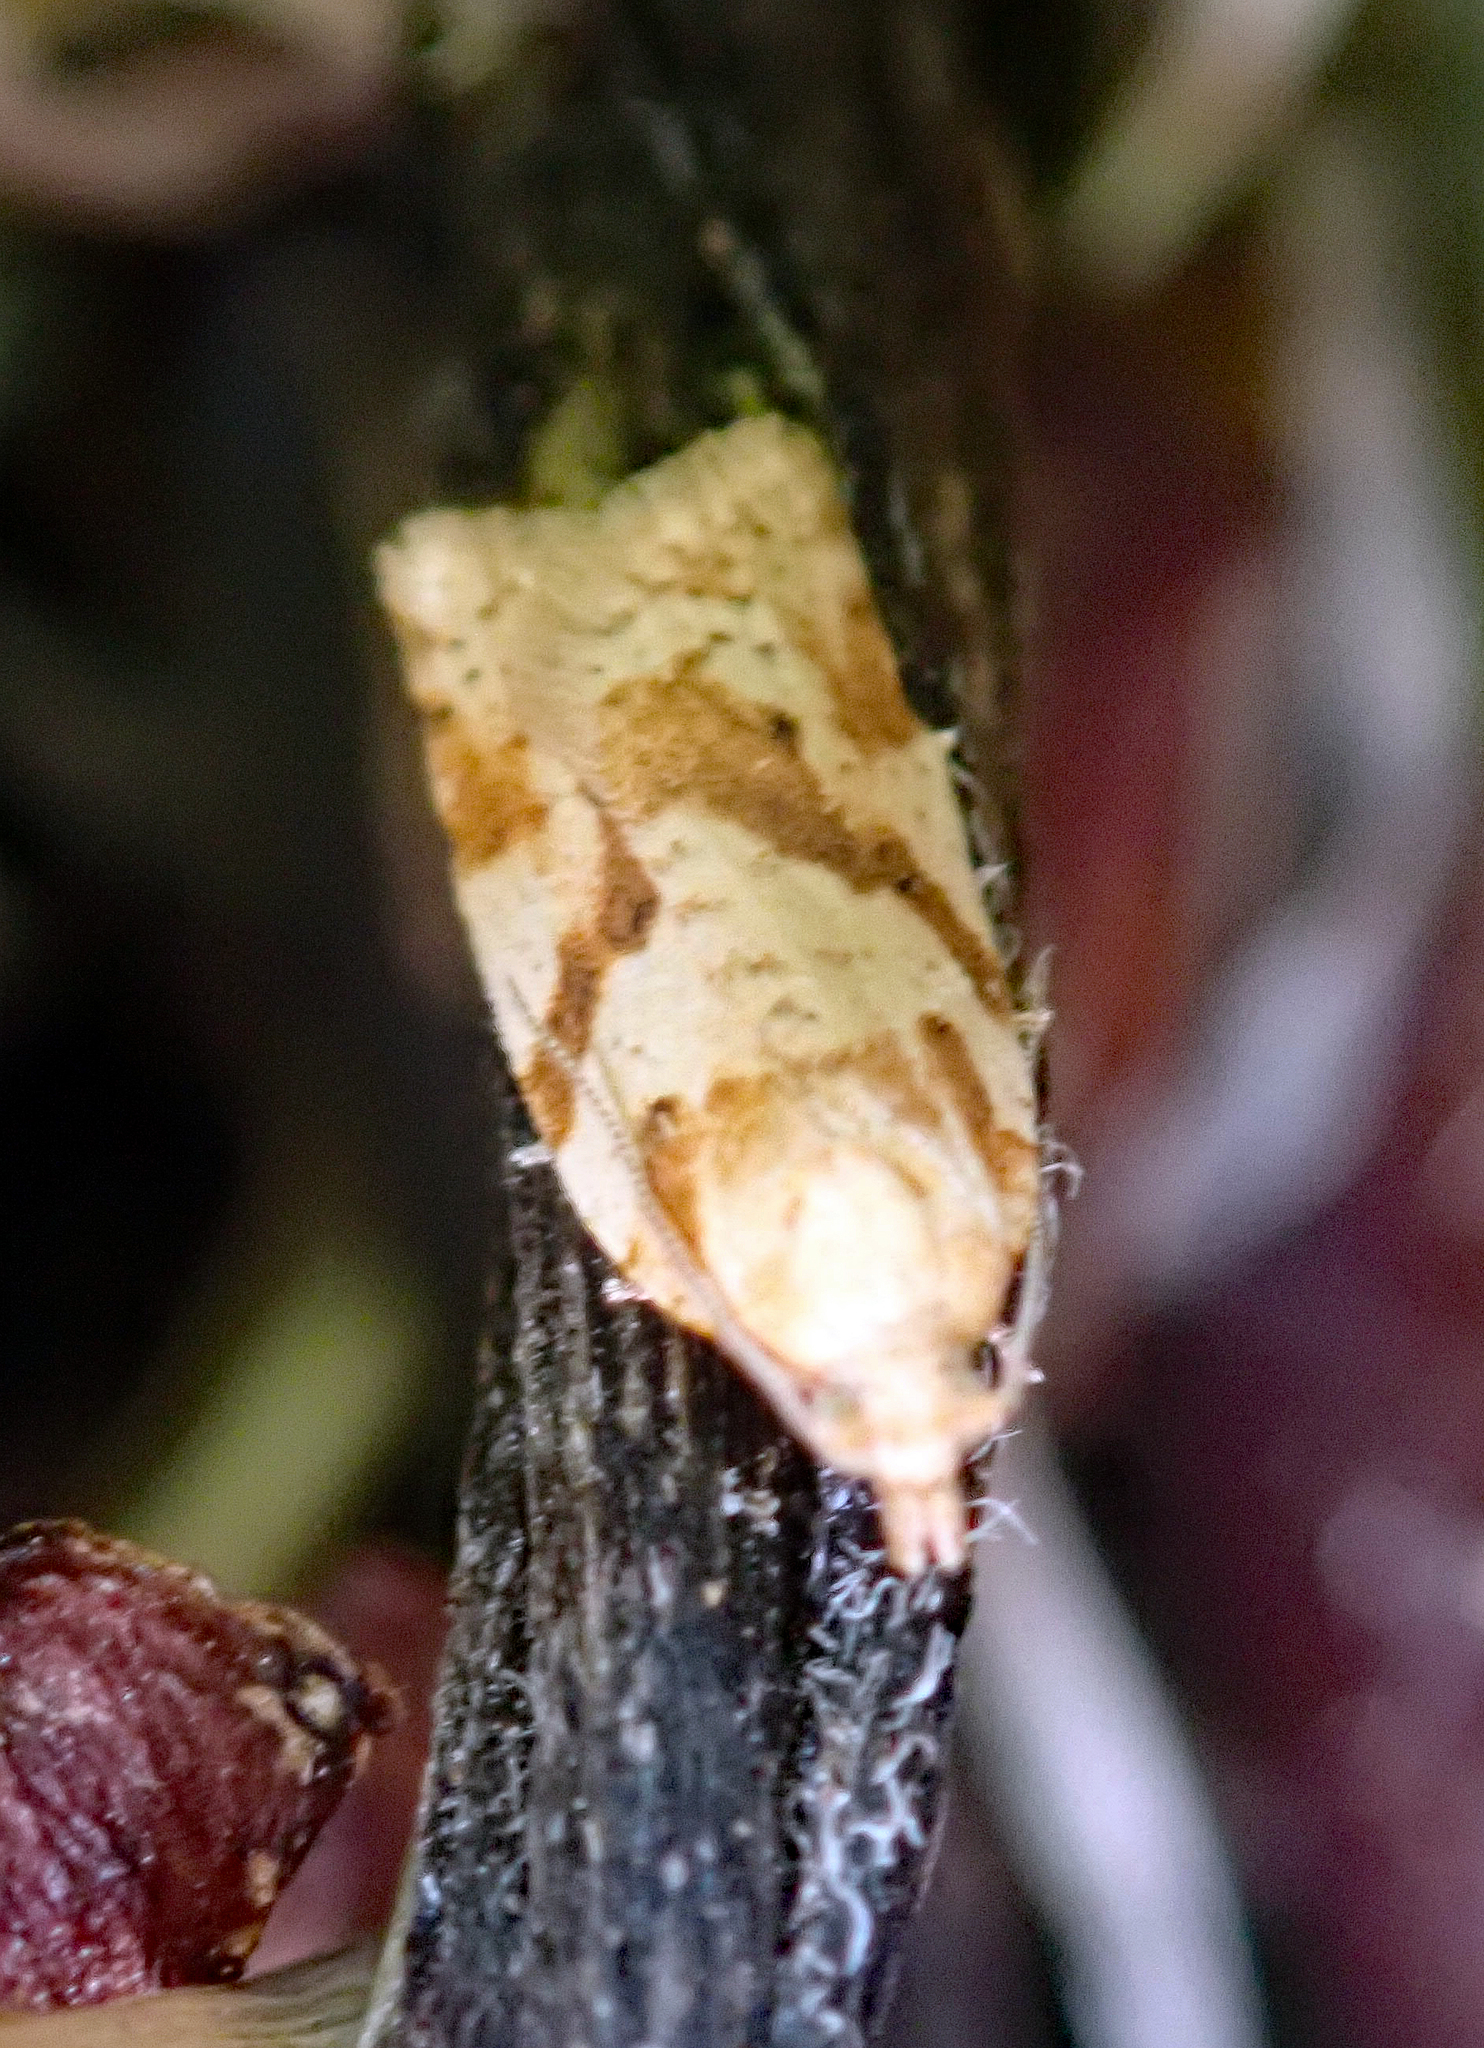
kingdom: Animalia
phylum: Arthropoda
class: Insecta
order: Lepidoptera
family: Tortricidae
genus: Clepsis
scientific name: Clepsis
